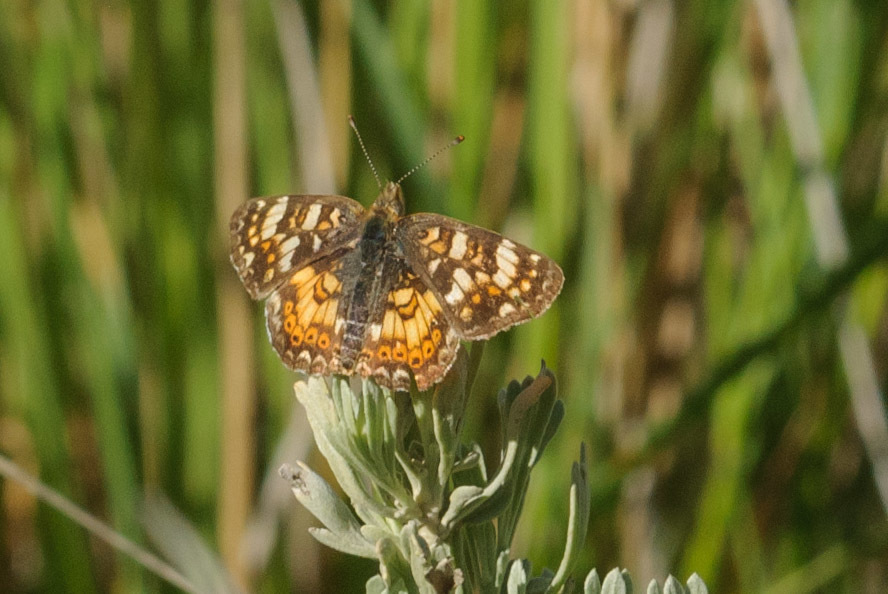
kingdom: Animalia
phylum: Arthropoda
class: Insecta
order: Lepidoptera
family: Nymphalidae
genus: Phyciodes
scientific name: Phyciodes tharos
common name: Pearl crescent
